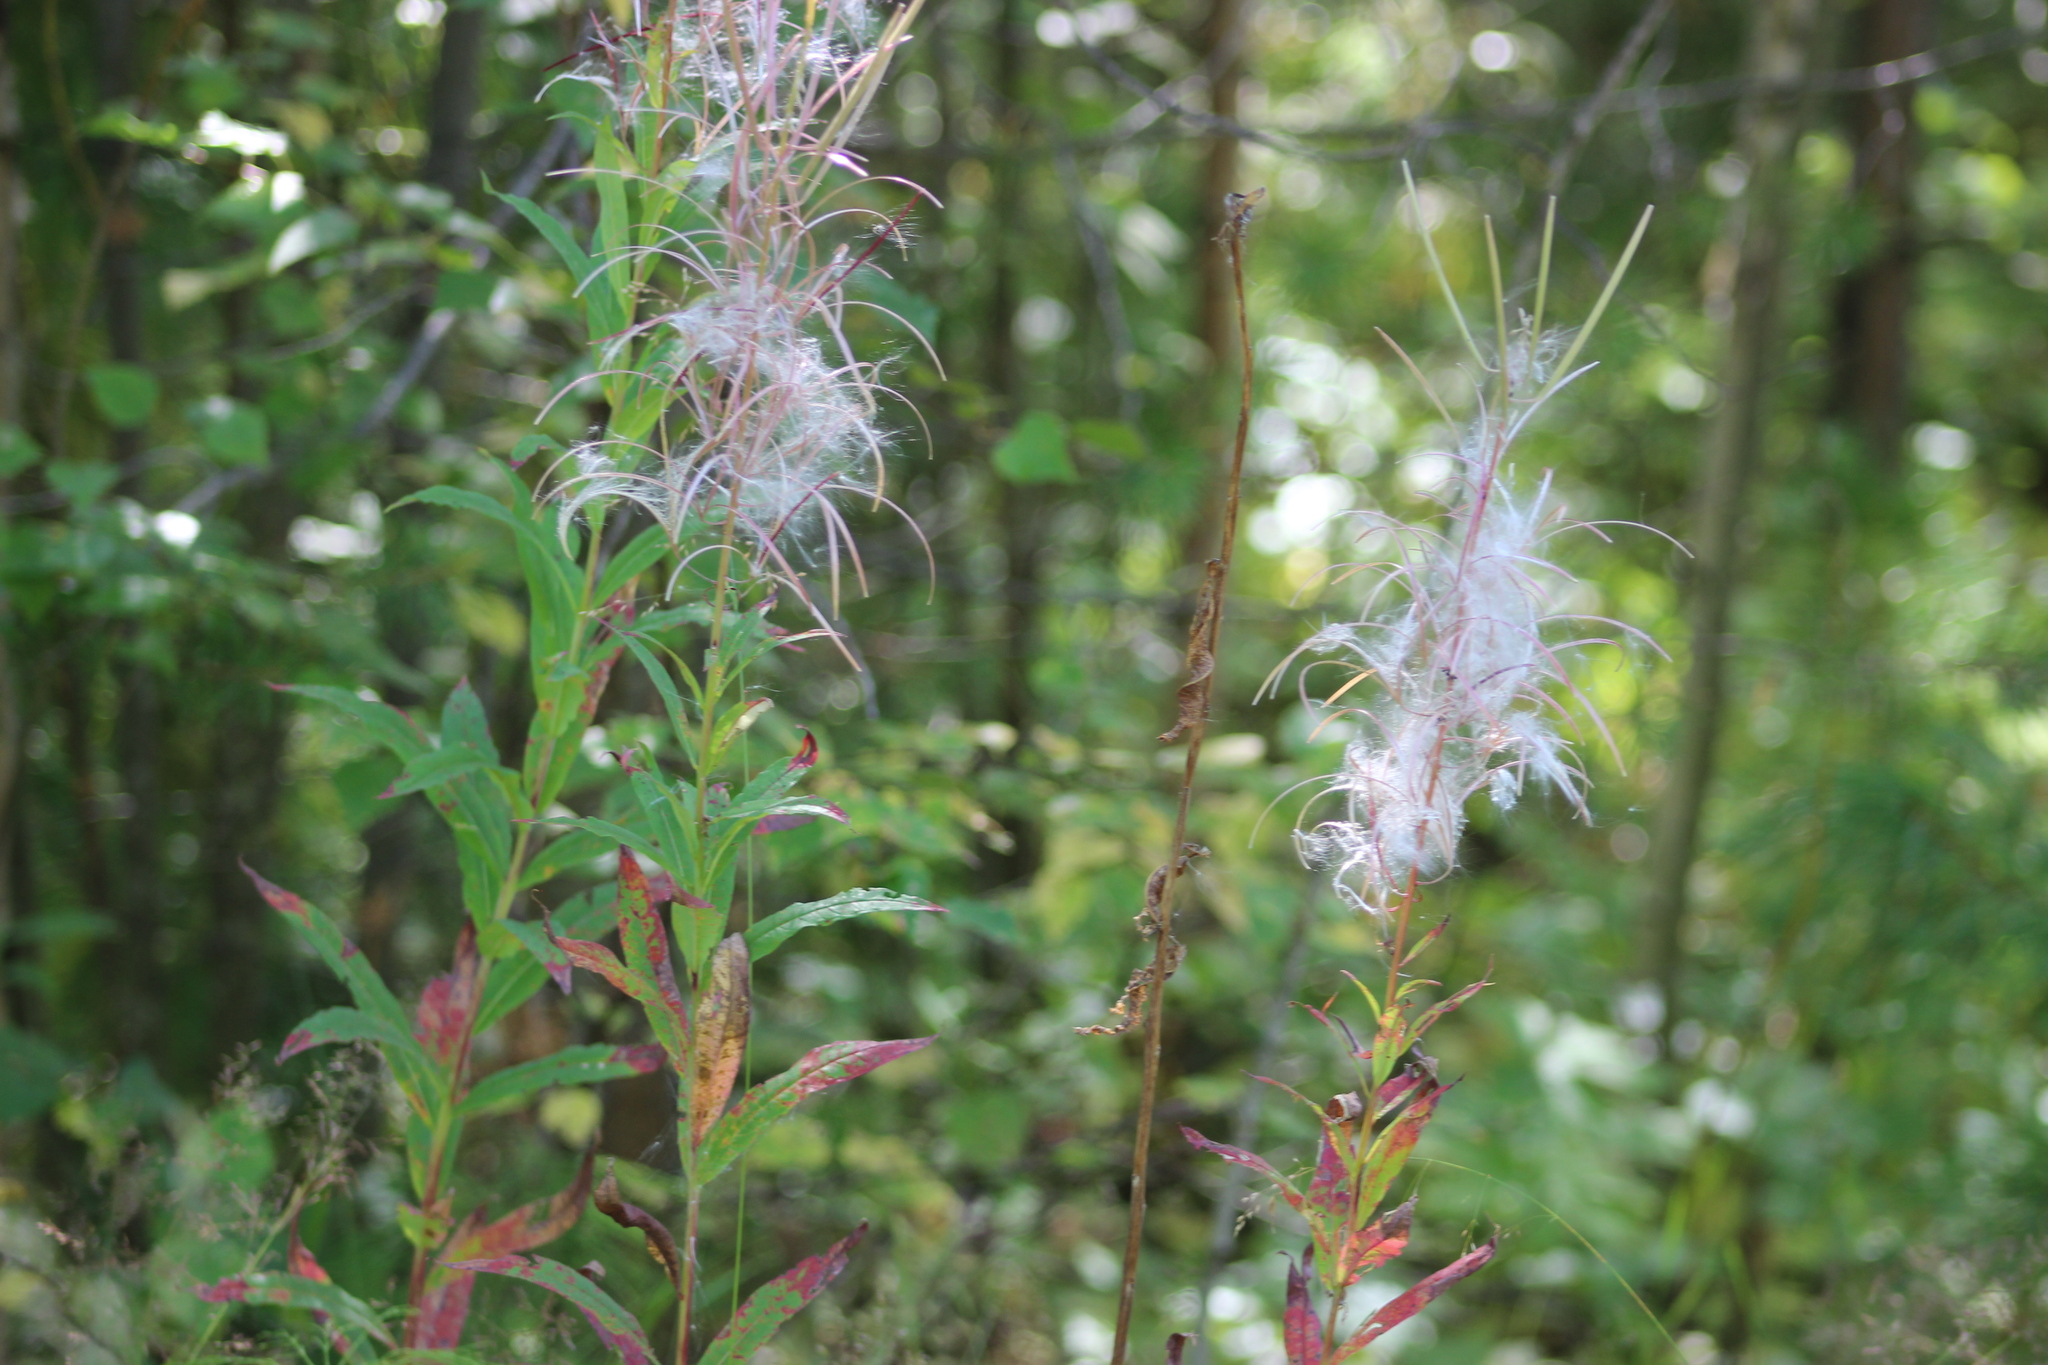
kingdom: Plantae
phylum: Tracheophyta
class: Magnoliopsida
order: Myrtales
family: Onagraceae
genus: Chamaenerion
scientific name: Chamaenerion angustifolium
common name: Fireweed
